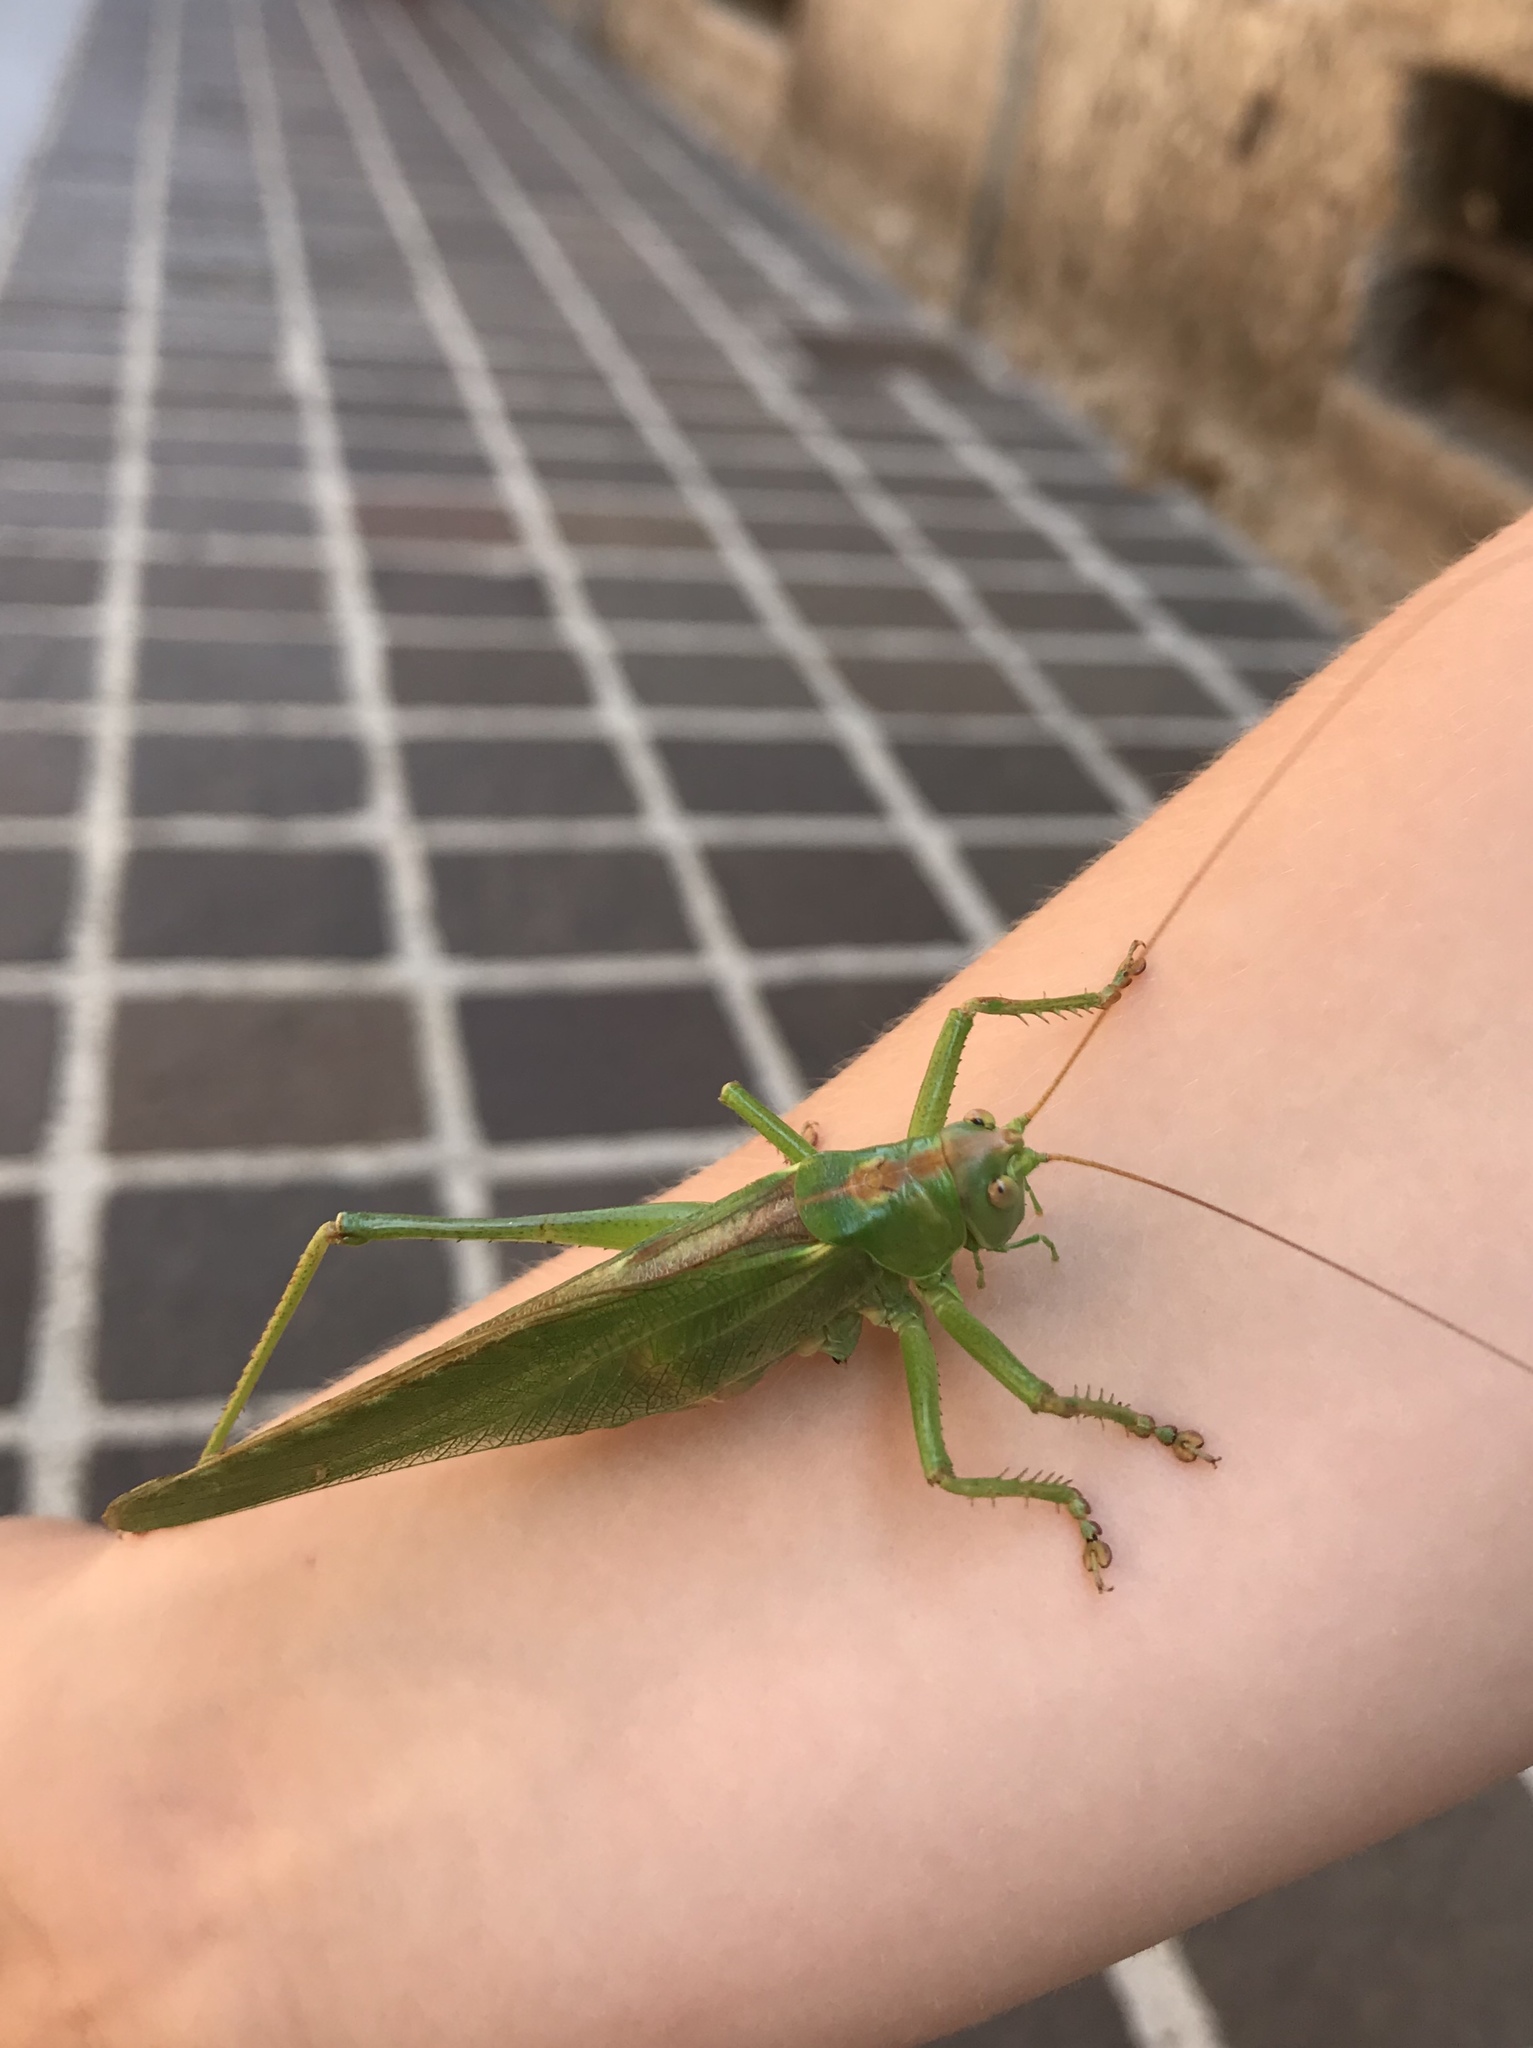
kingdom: Animalia
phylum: Arthropoda
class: Insecta
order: Orthoptera
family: Tettigoniidae
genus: Tettigonia
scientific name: Tettigonia viridissima
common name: Great green bush-cricket
